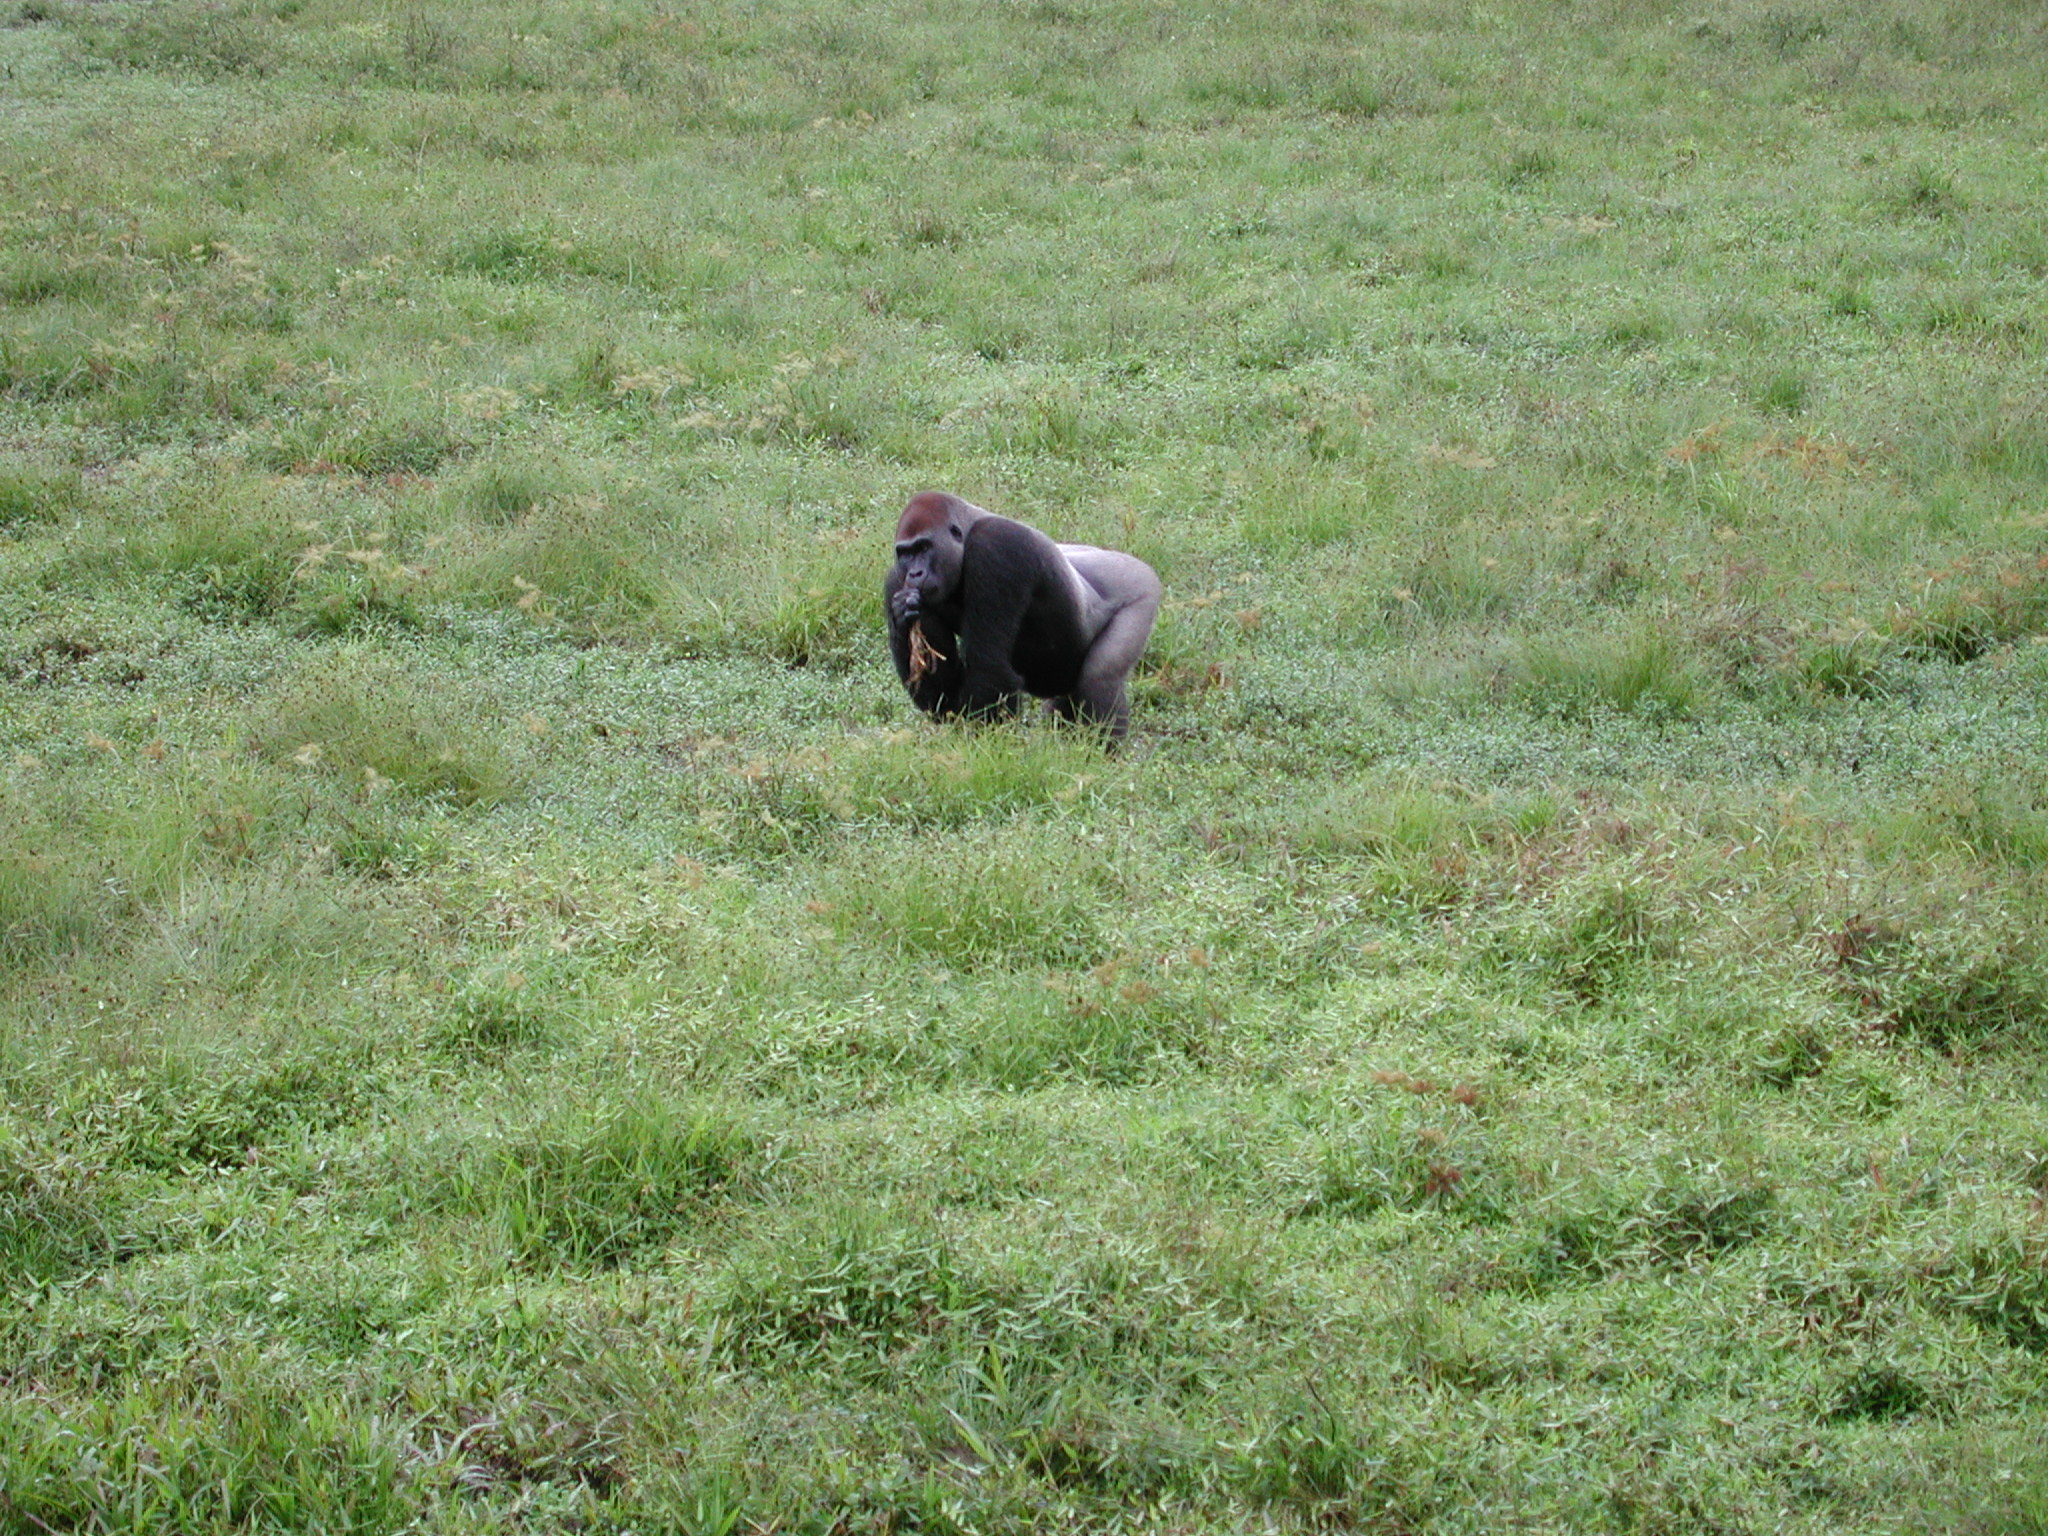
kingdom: Animalia
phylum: Chordata
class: Mammalia
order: Primates
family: Hominidae
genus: Gorilla
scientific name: Gorilla gorilla
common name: Western gorilla
